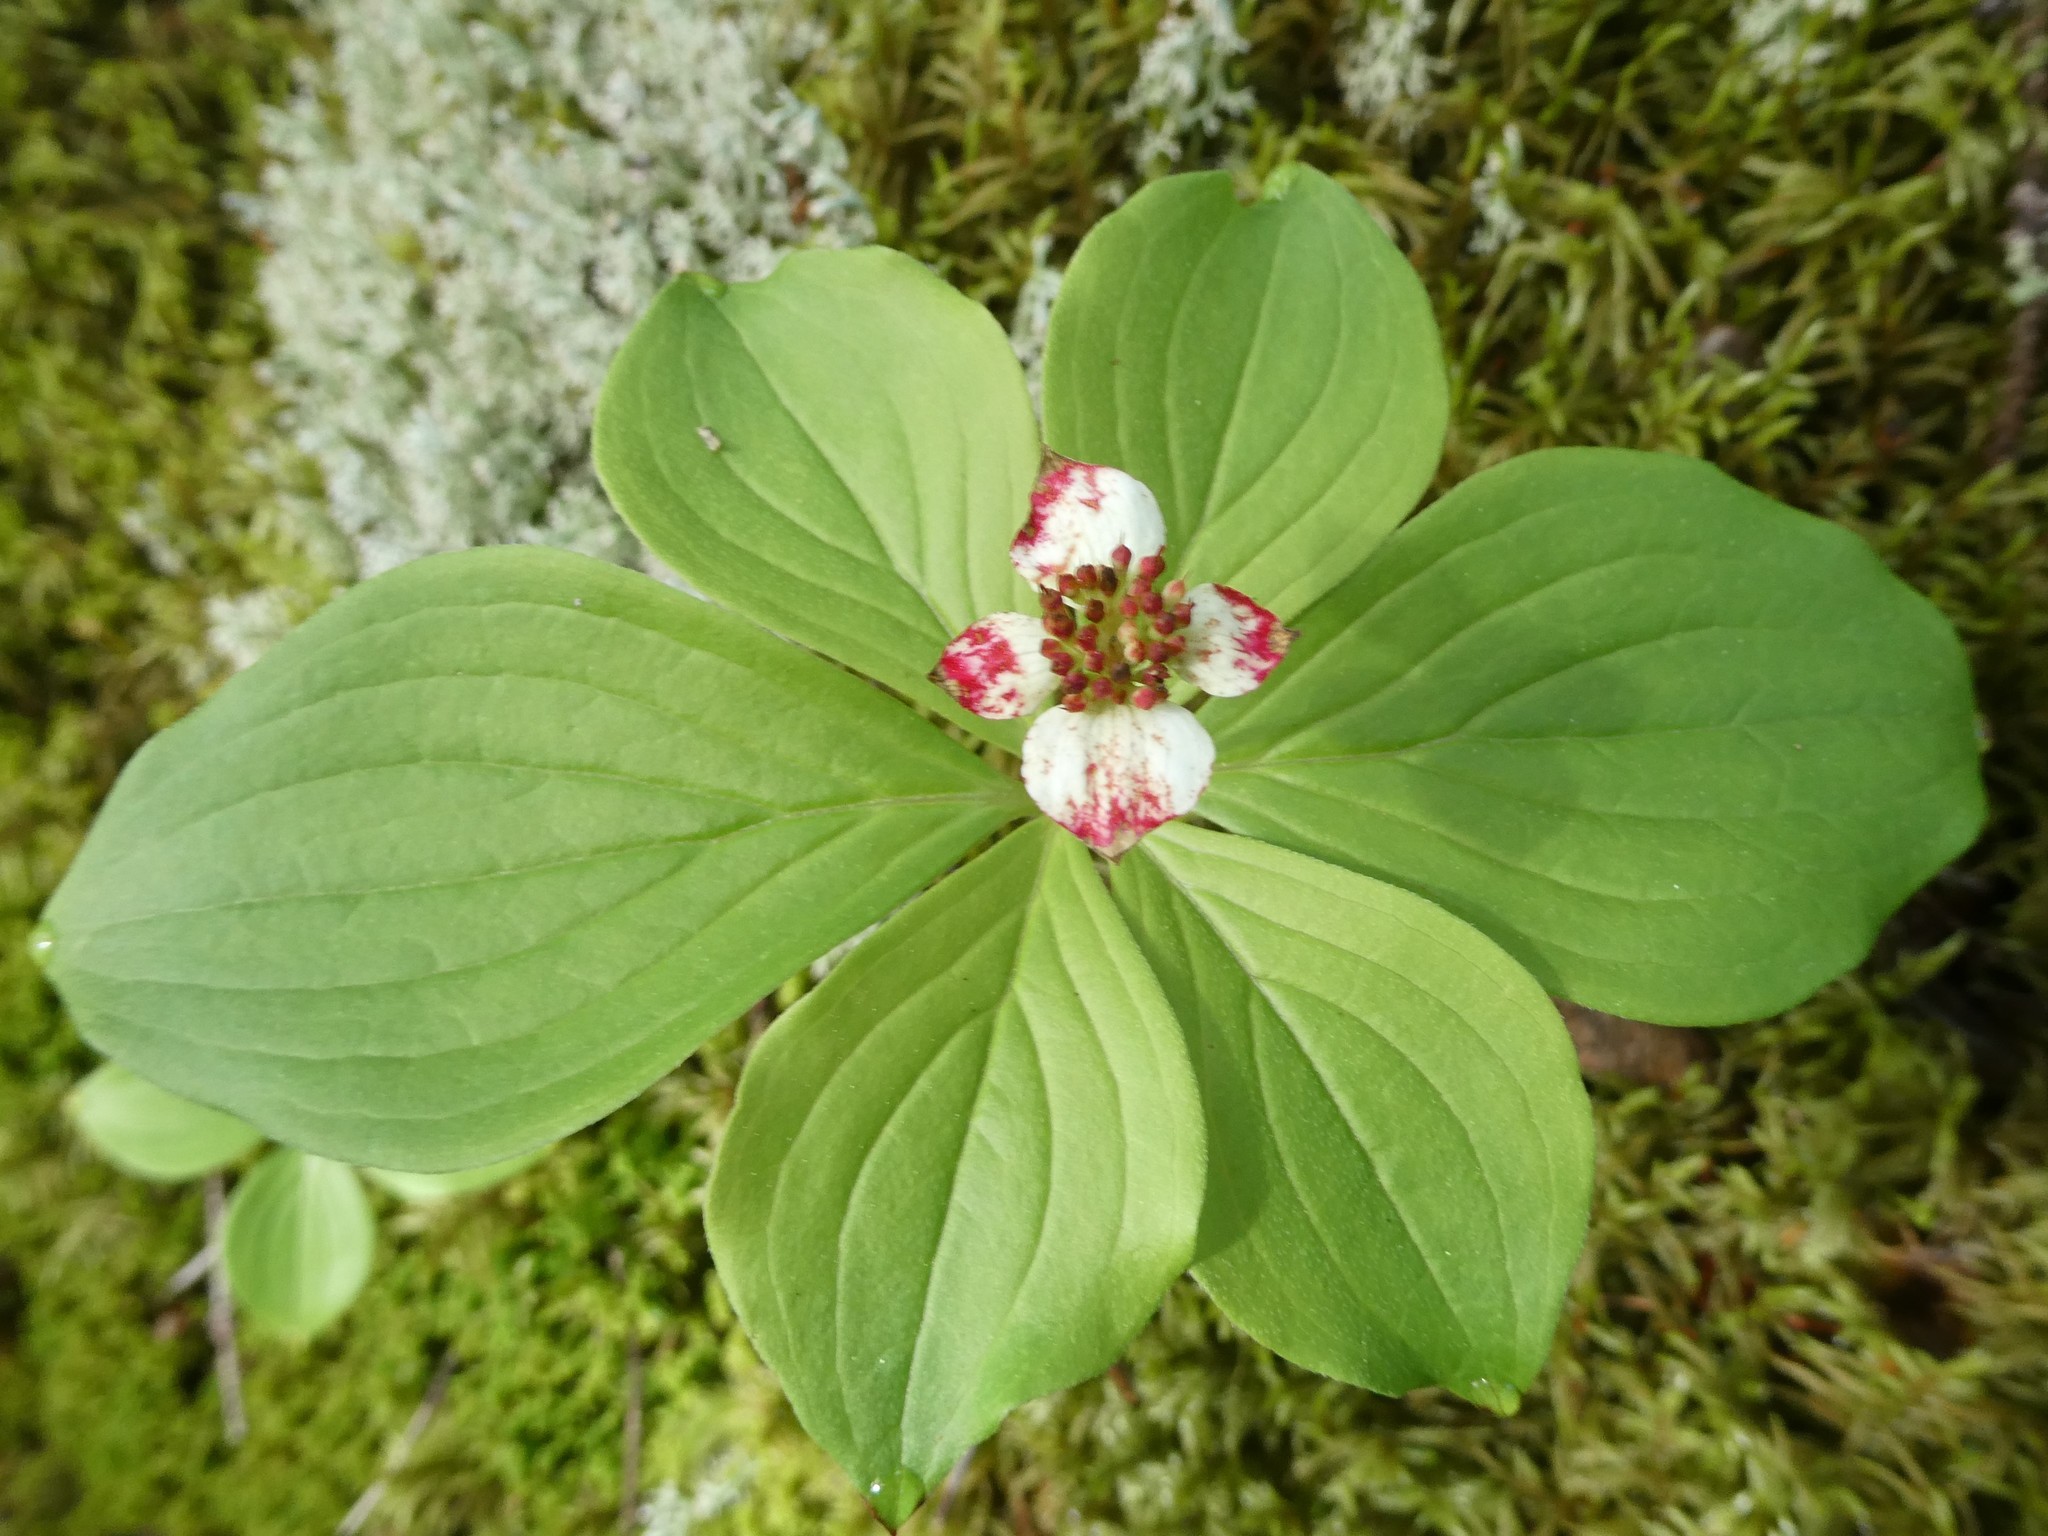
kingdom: Plantae
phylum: Tracheophyta
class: Magnoliopsida
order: Cornales
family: Cornaceae
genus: Cornus
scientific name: Cornus canadensis
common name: Creeping dogwood
